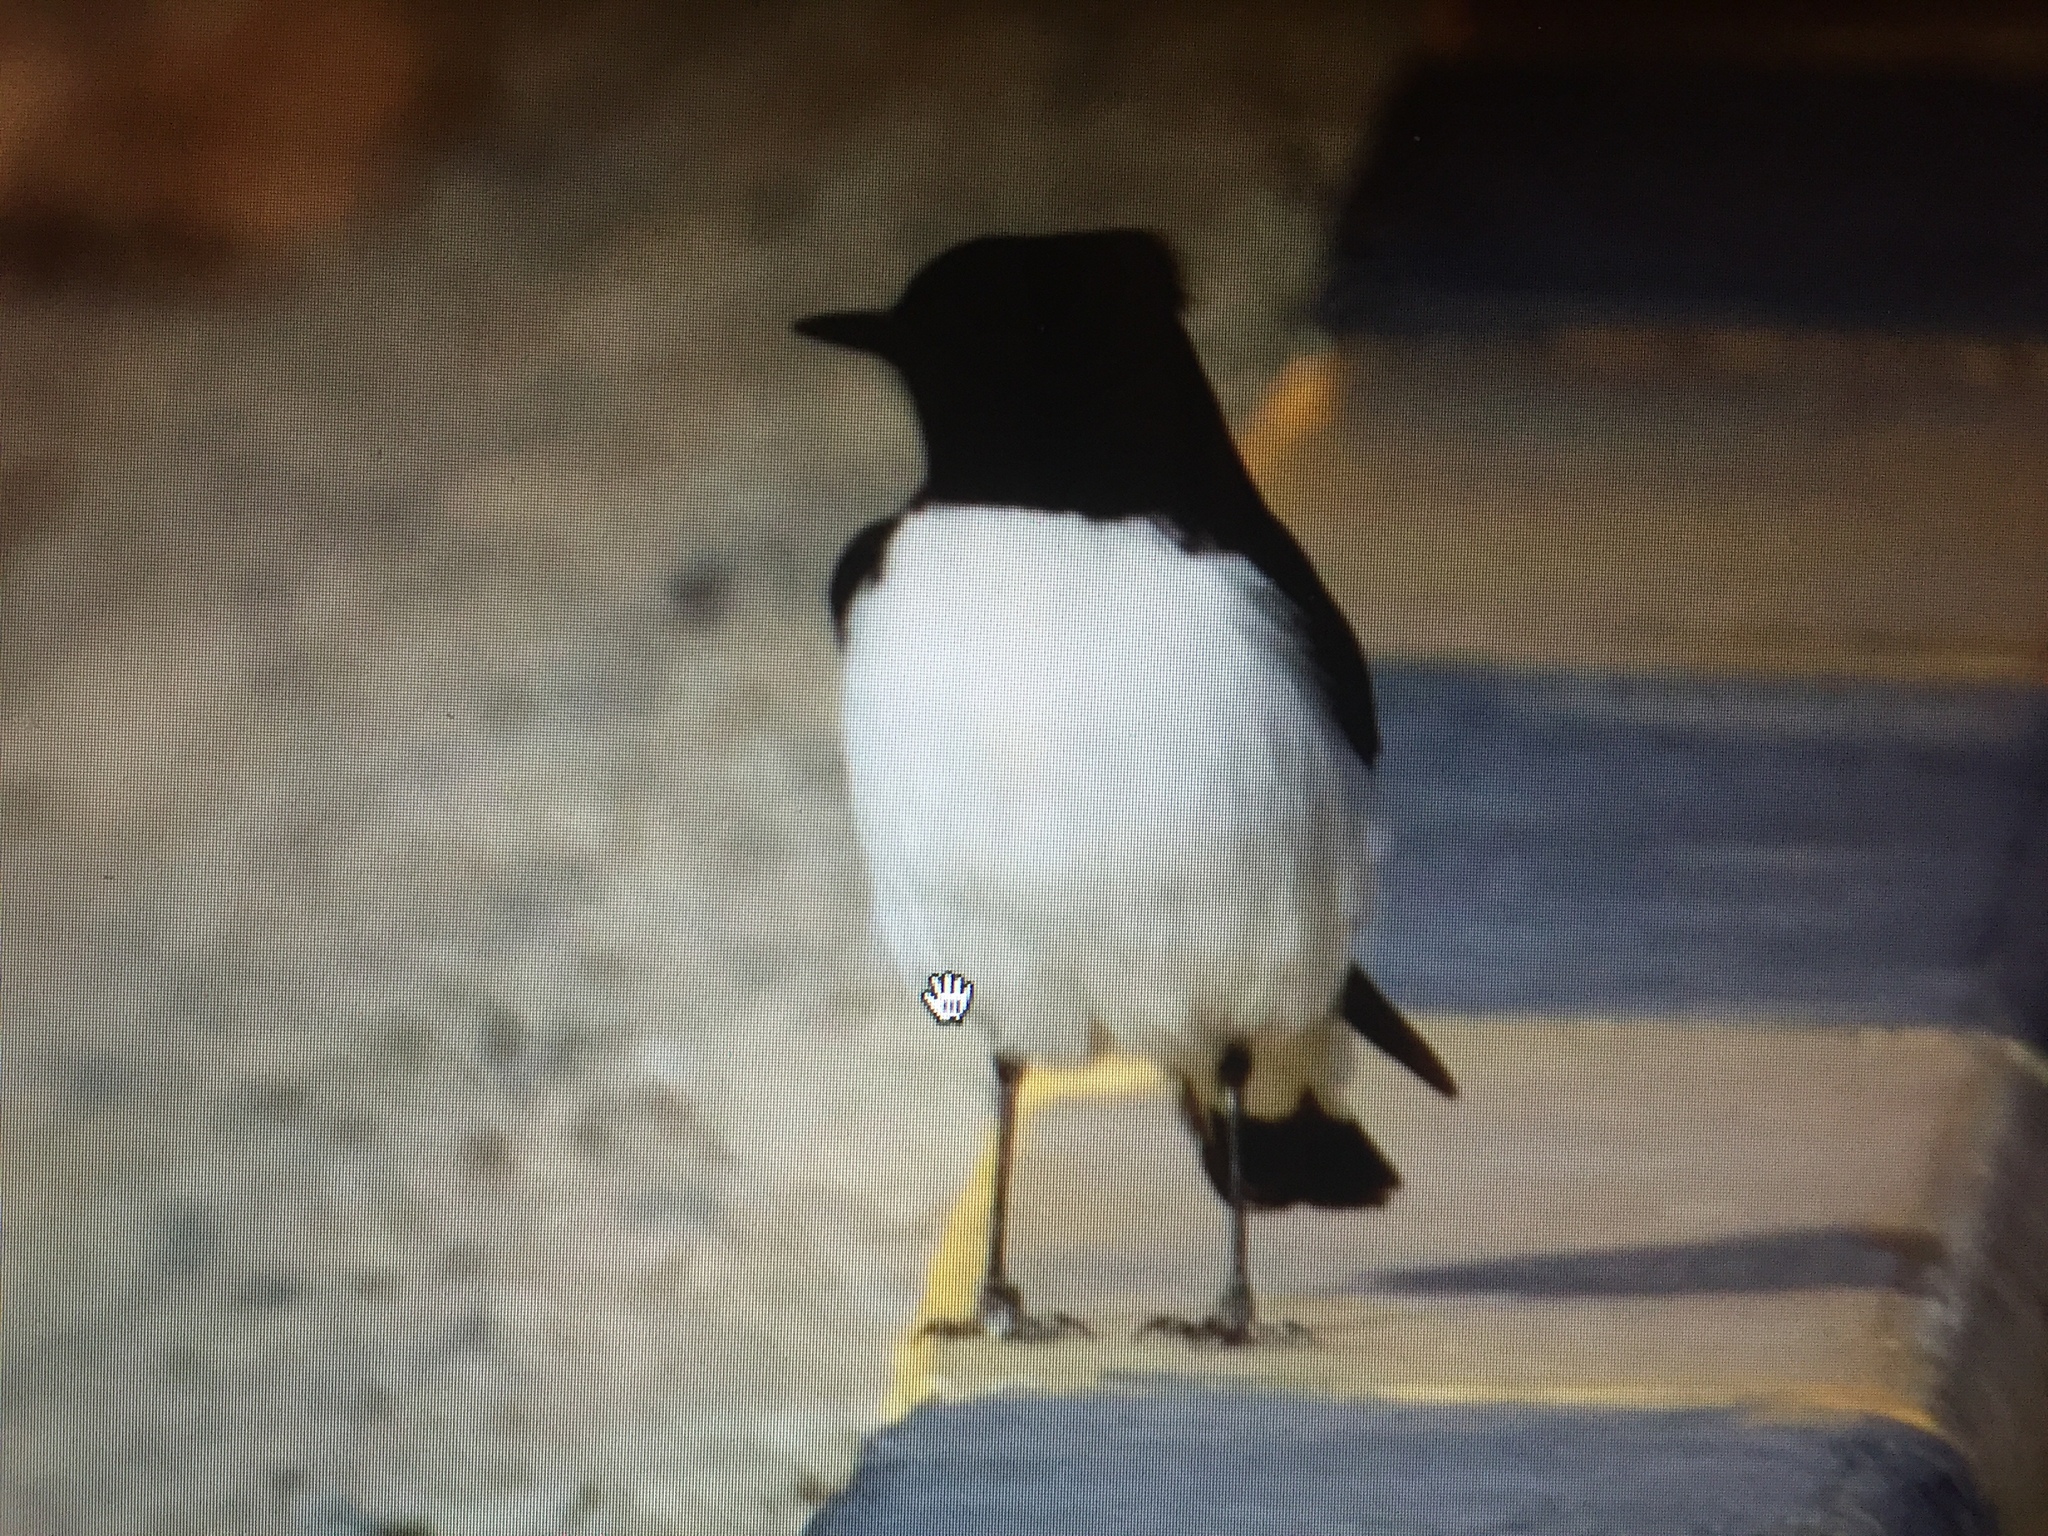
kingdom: Animalia
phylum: Chordata
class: Aves
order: Passeriformes
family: Muscicapidae
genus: Oenanthe
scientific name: Oenanthe albonigra
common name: Hume's wheatear
